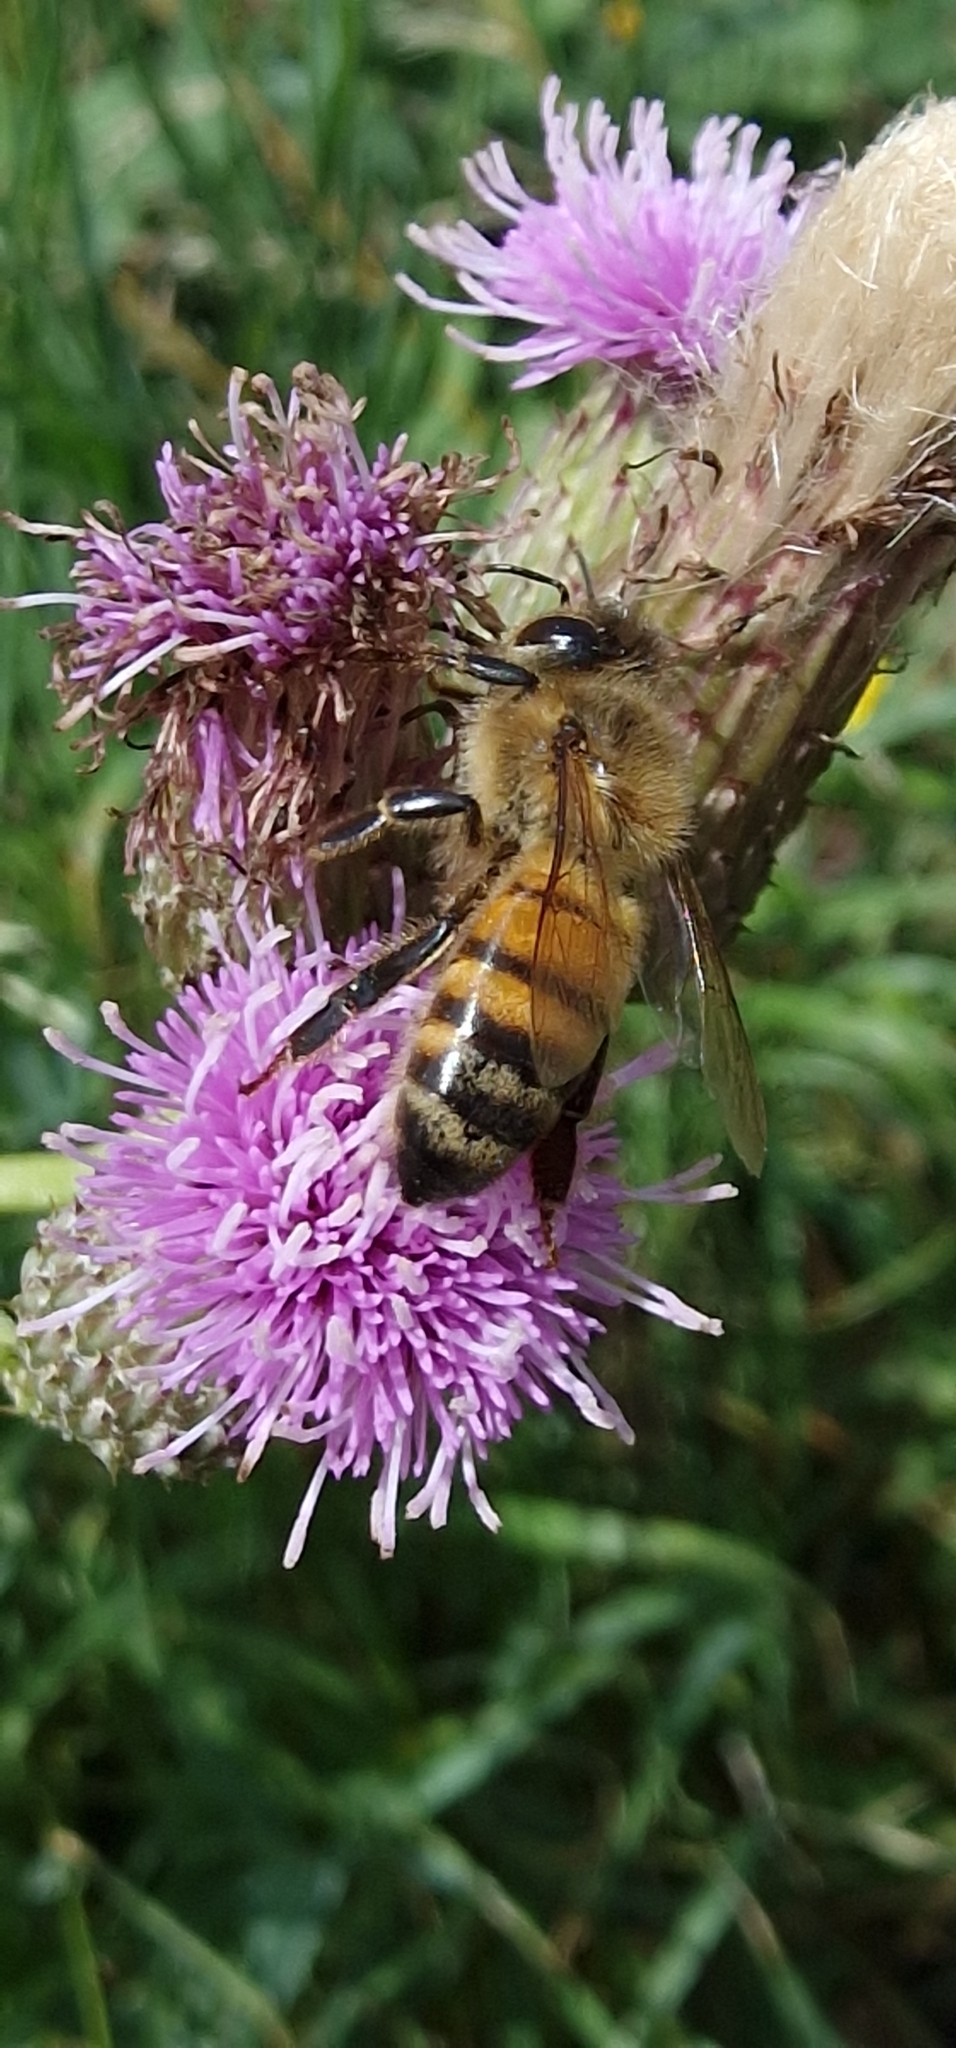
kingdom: Animalia
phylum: Arthropoda
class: Insecta
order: Hymenoptera
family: Apidae
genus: Apis
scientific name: Apis mellifera
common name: Honey bee
